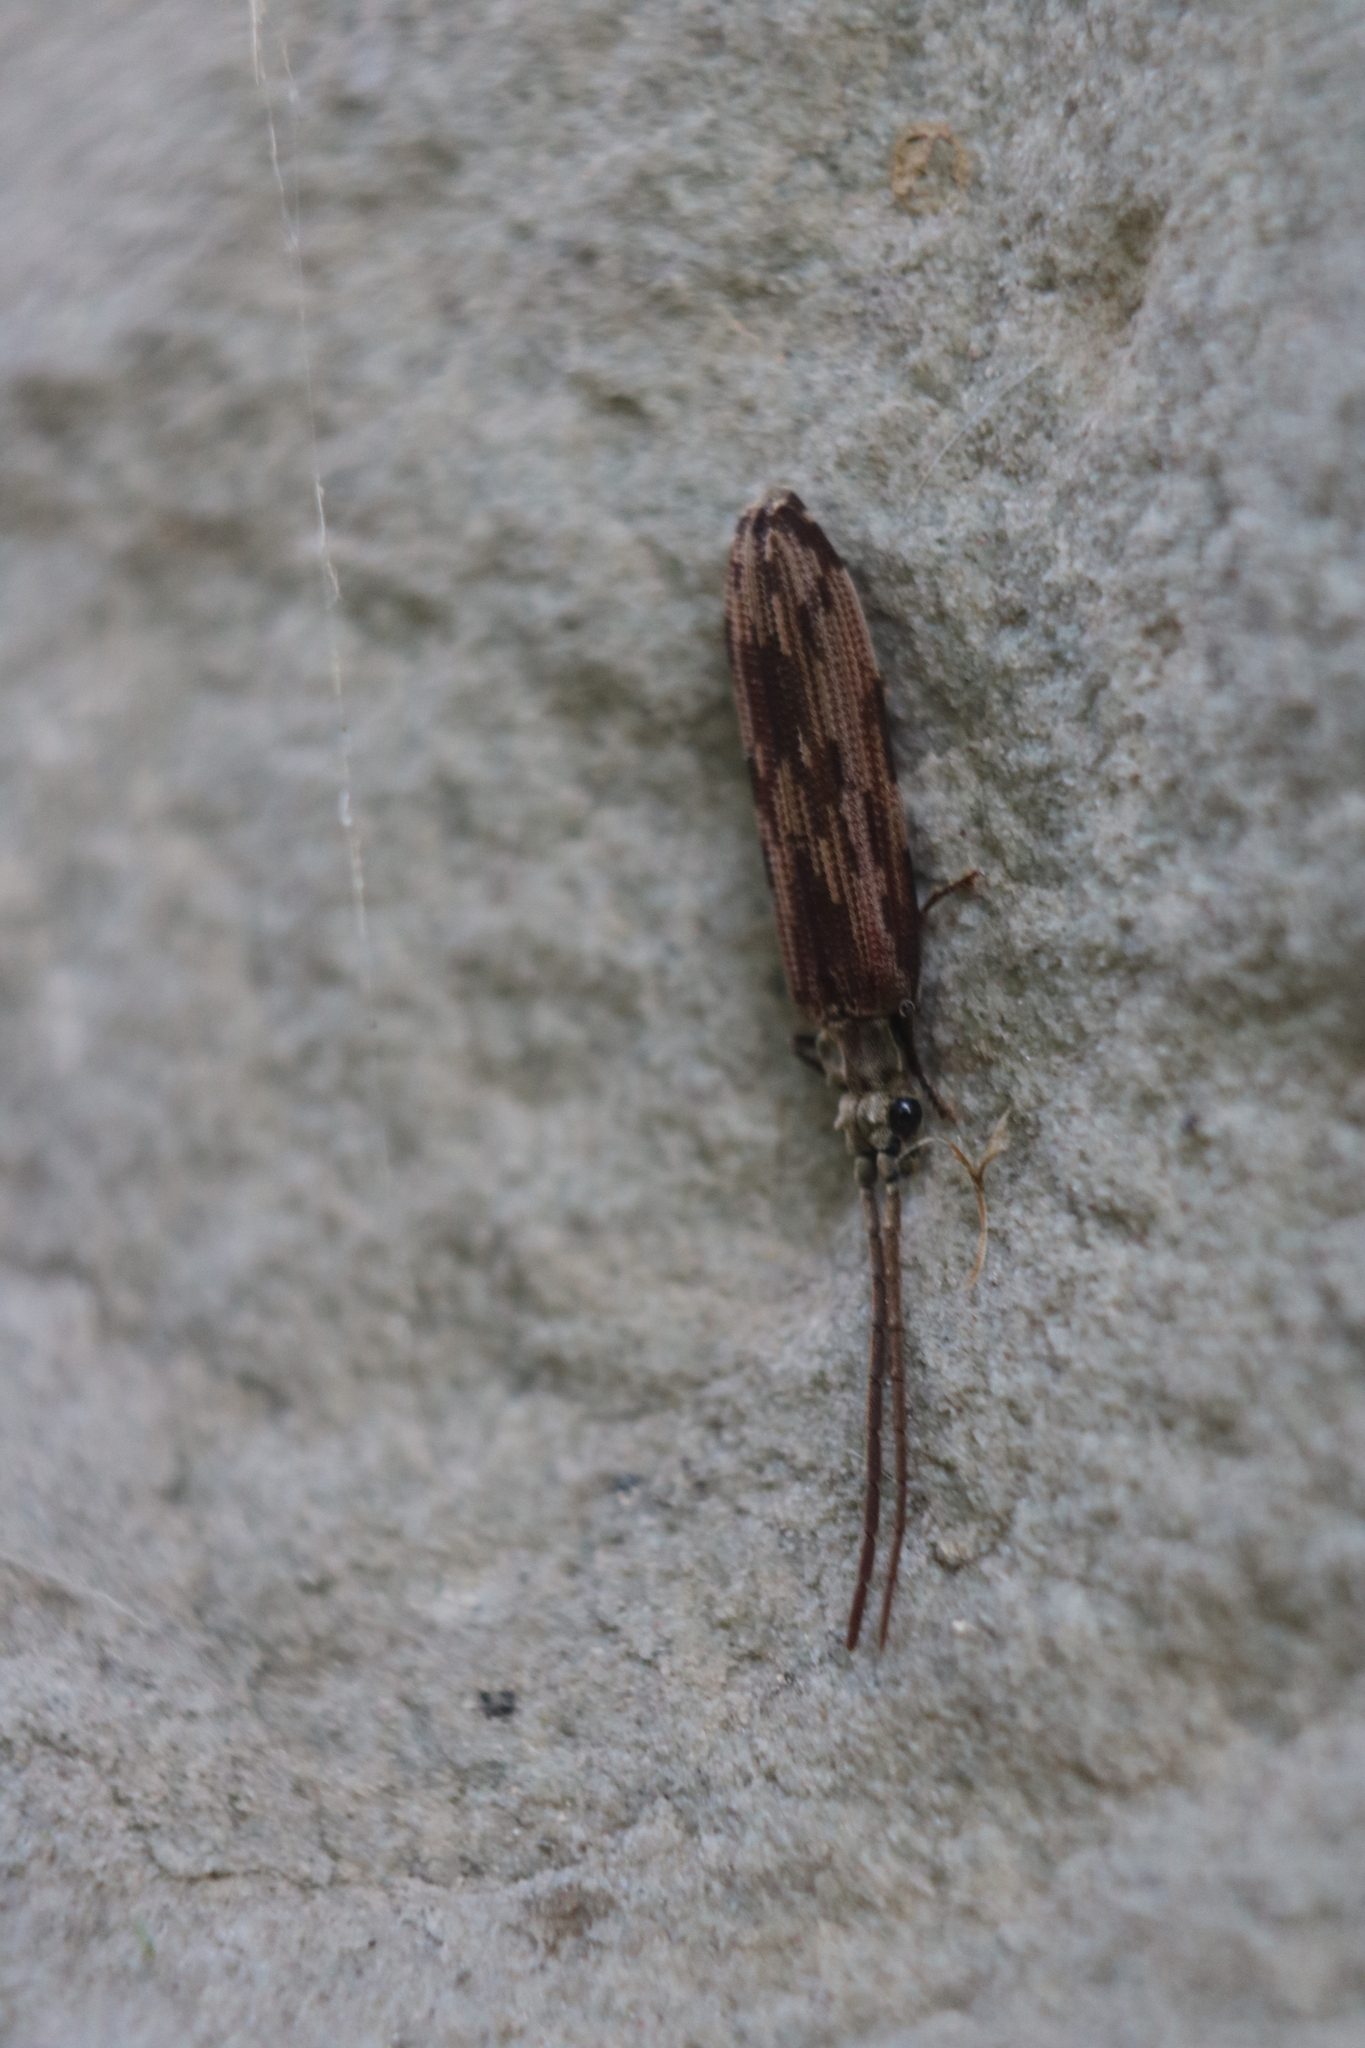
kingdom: Animalia
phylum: Arthropoda
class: Insecta
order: Coleoptera
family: Cupedidae
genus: Tenomerga
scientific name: Tenomerga cinerea
